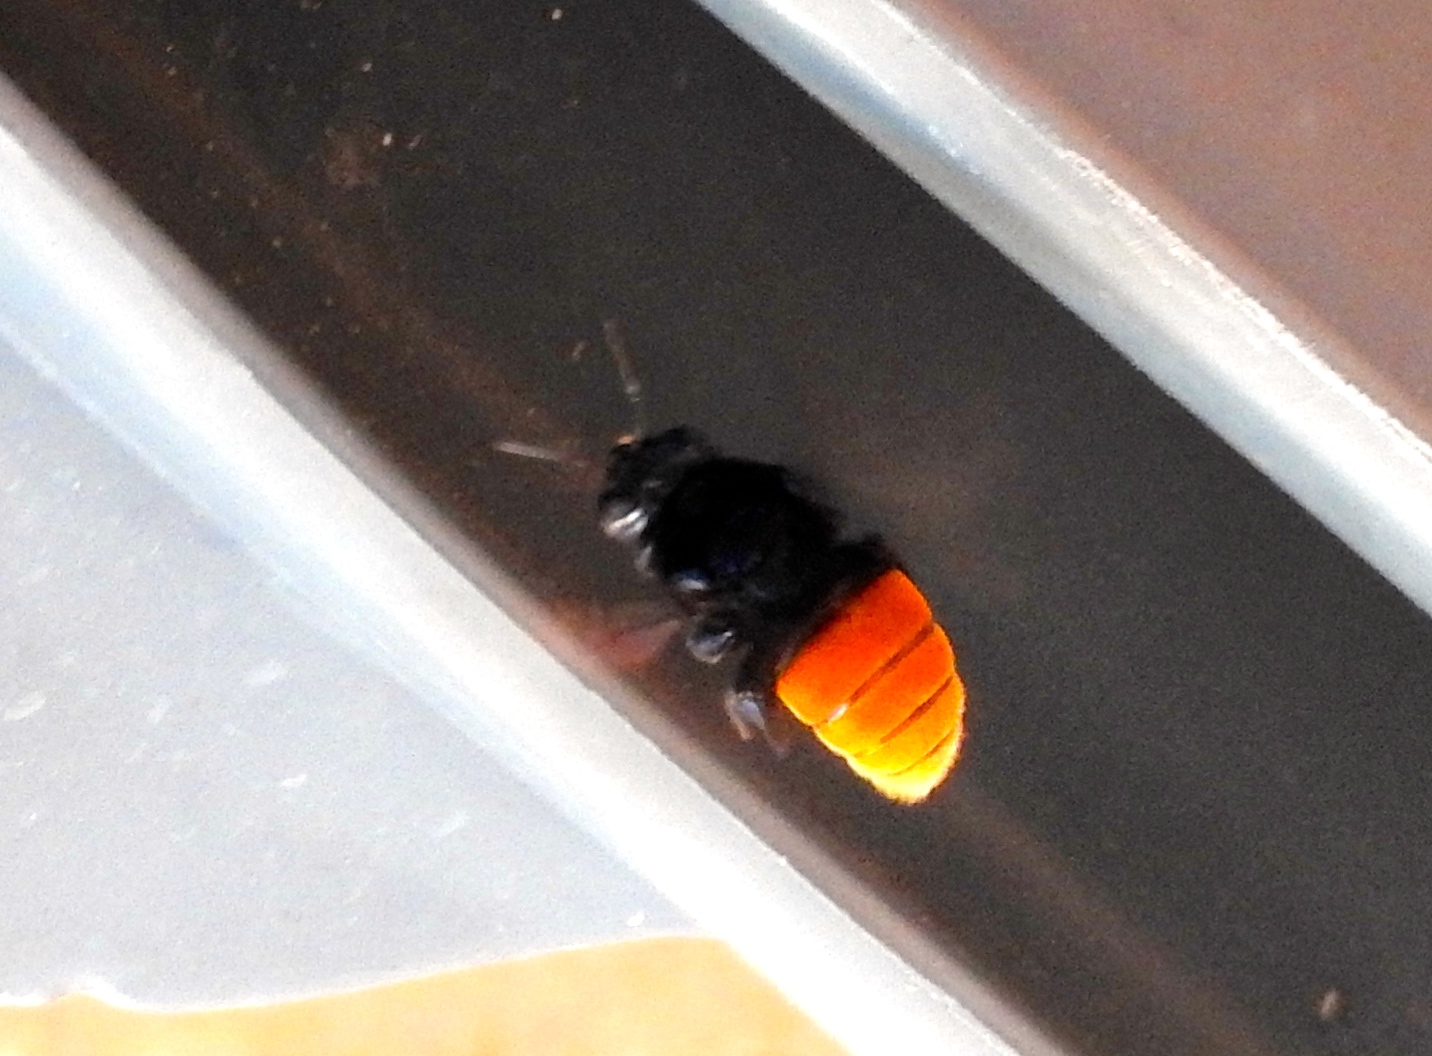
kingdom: Animalia
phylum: Arthropoda
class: Insecta
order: Hymenoptera
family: Apidae
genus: Eufriesea
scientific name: Eufriesea mexicana
